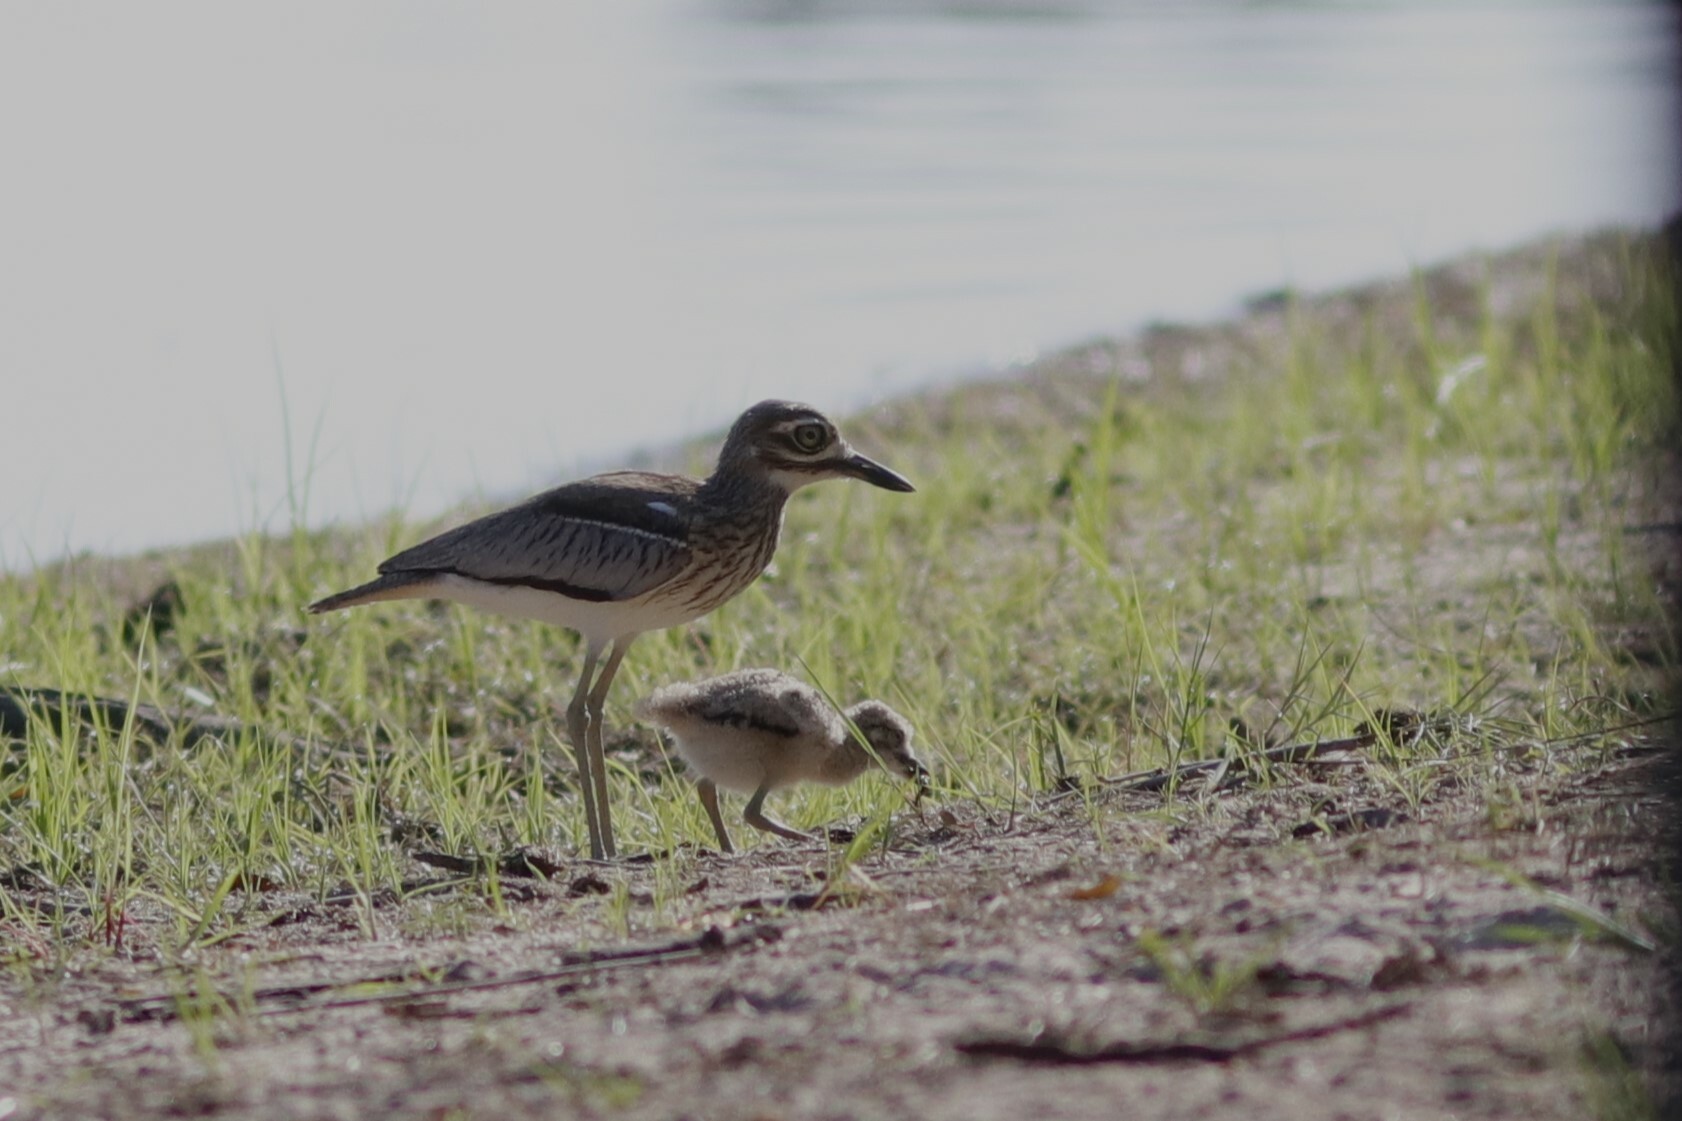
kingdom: Animalia
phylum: Chordata
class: Aves
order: Charadriiformes
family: Burhinidae
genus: Burhinus
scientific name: Burhinus vermiculatus
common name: Water thick-knee
